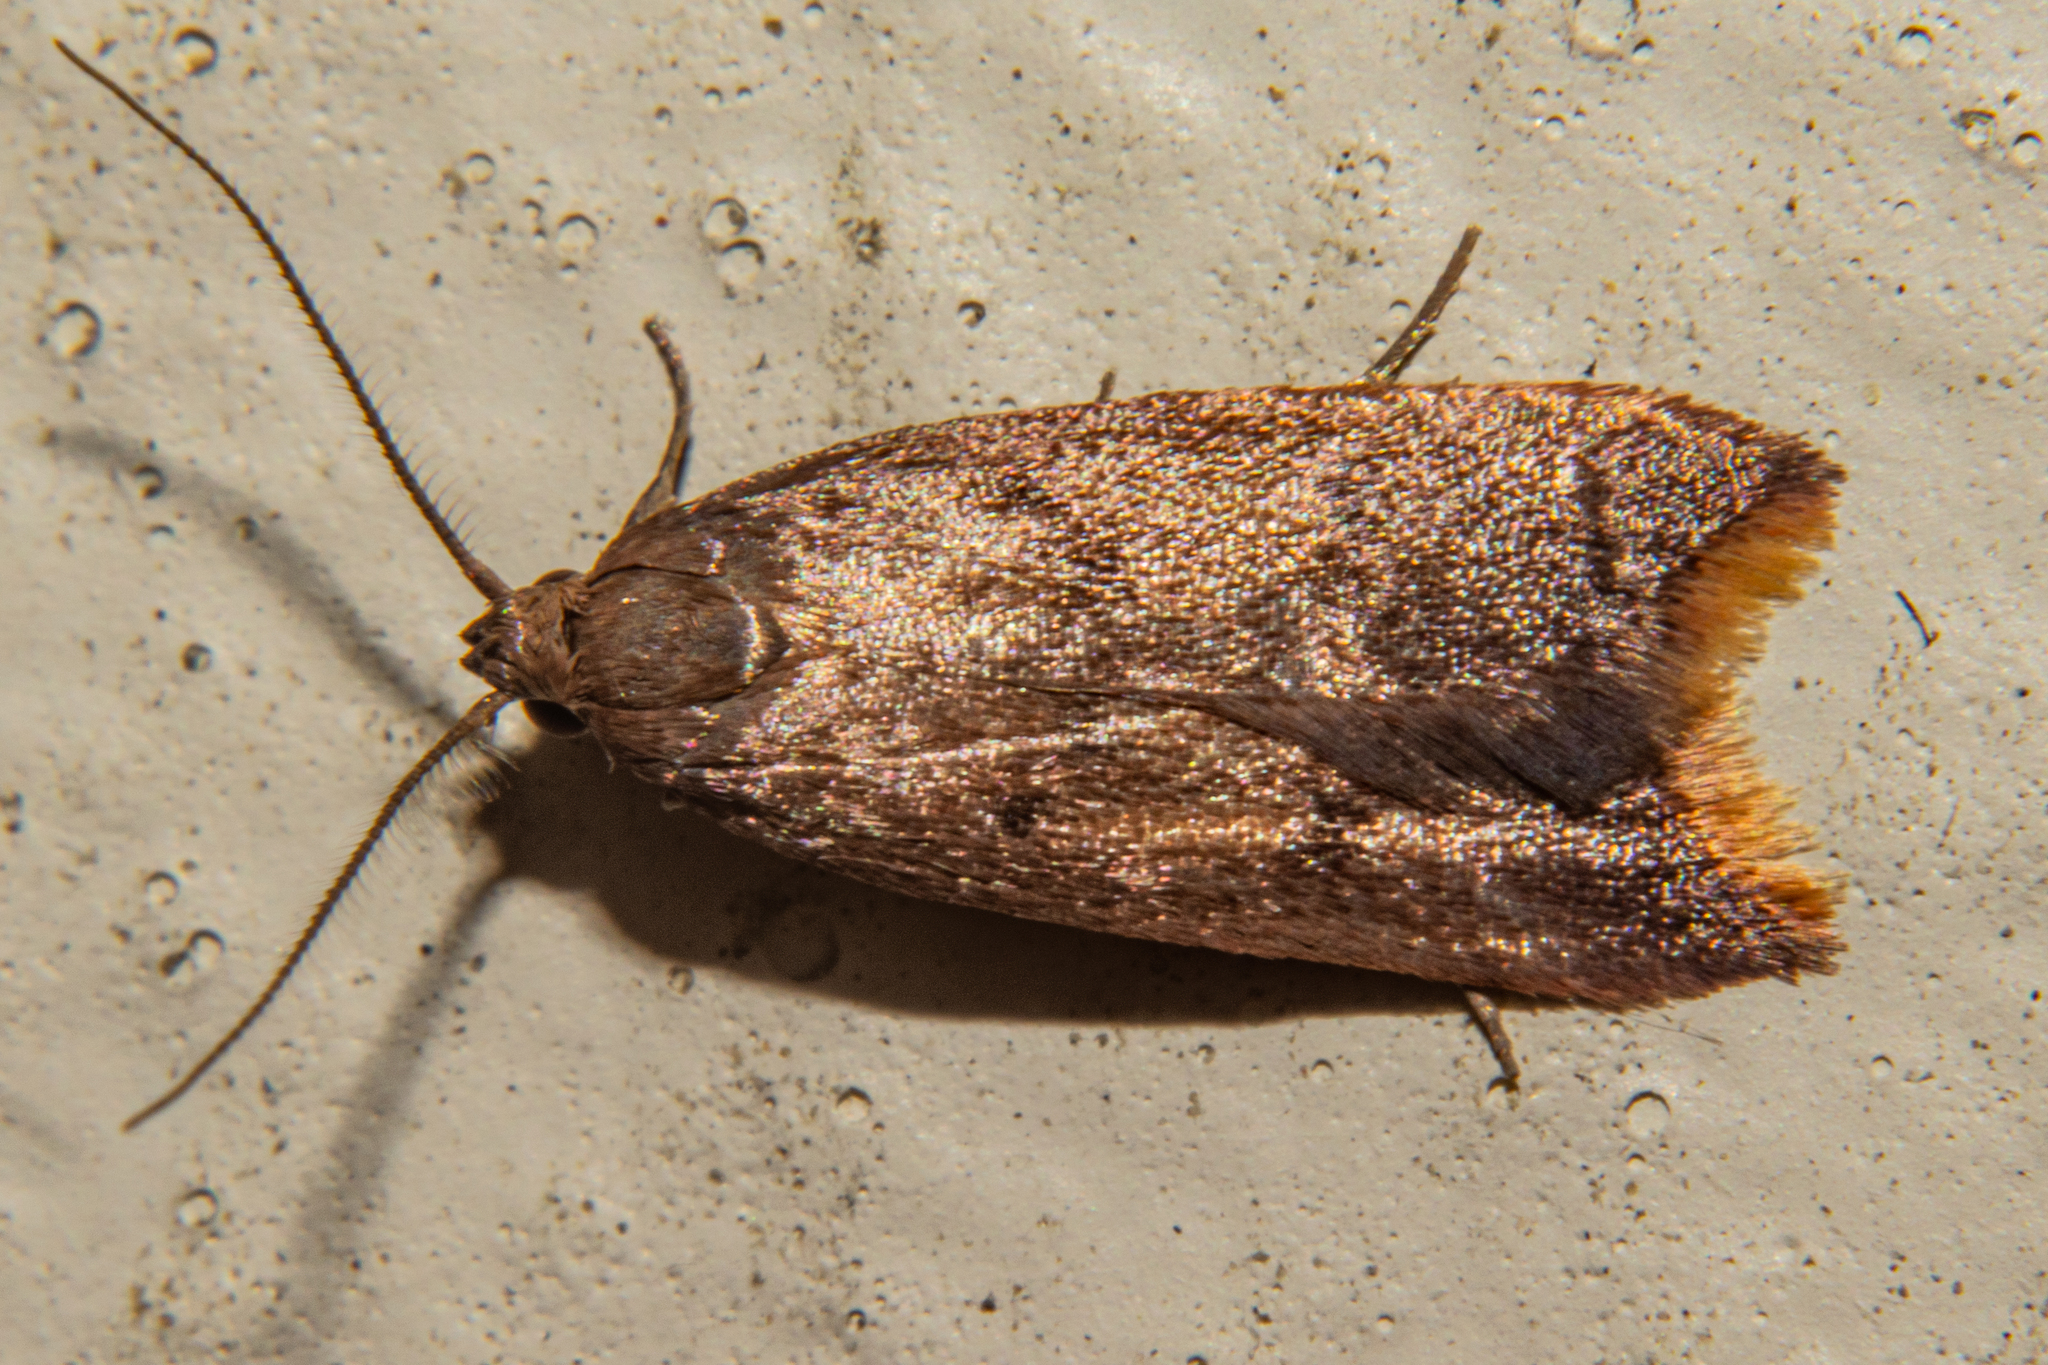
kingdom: Animalia
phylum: Arthropoda
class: Insecta
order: Lepidoptera
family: Oecophoridae
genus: Tachystola
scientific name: Tachystola acroxantha
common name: Ruddy streak
